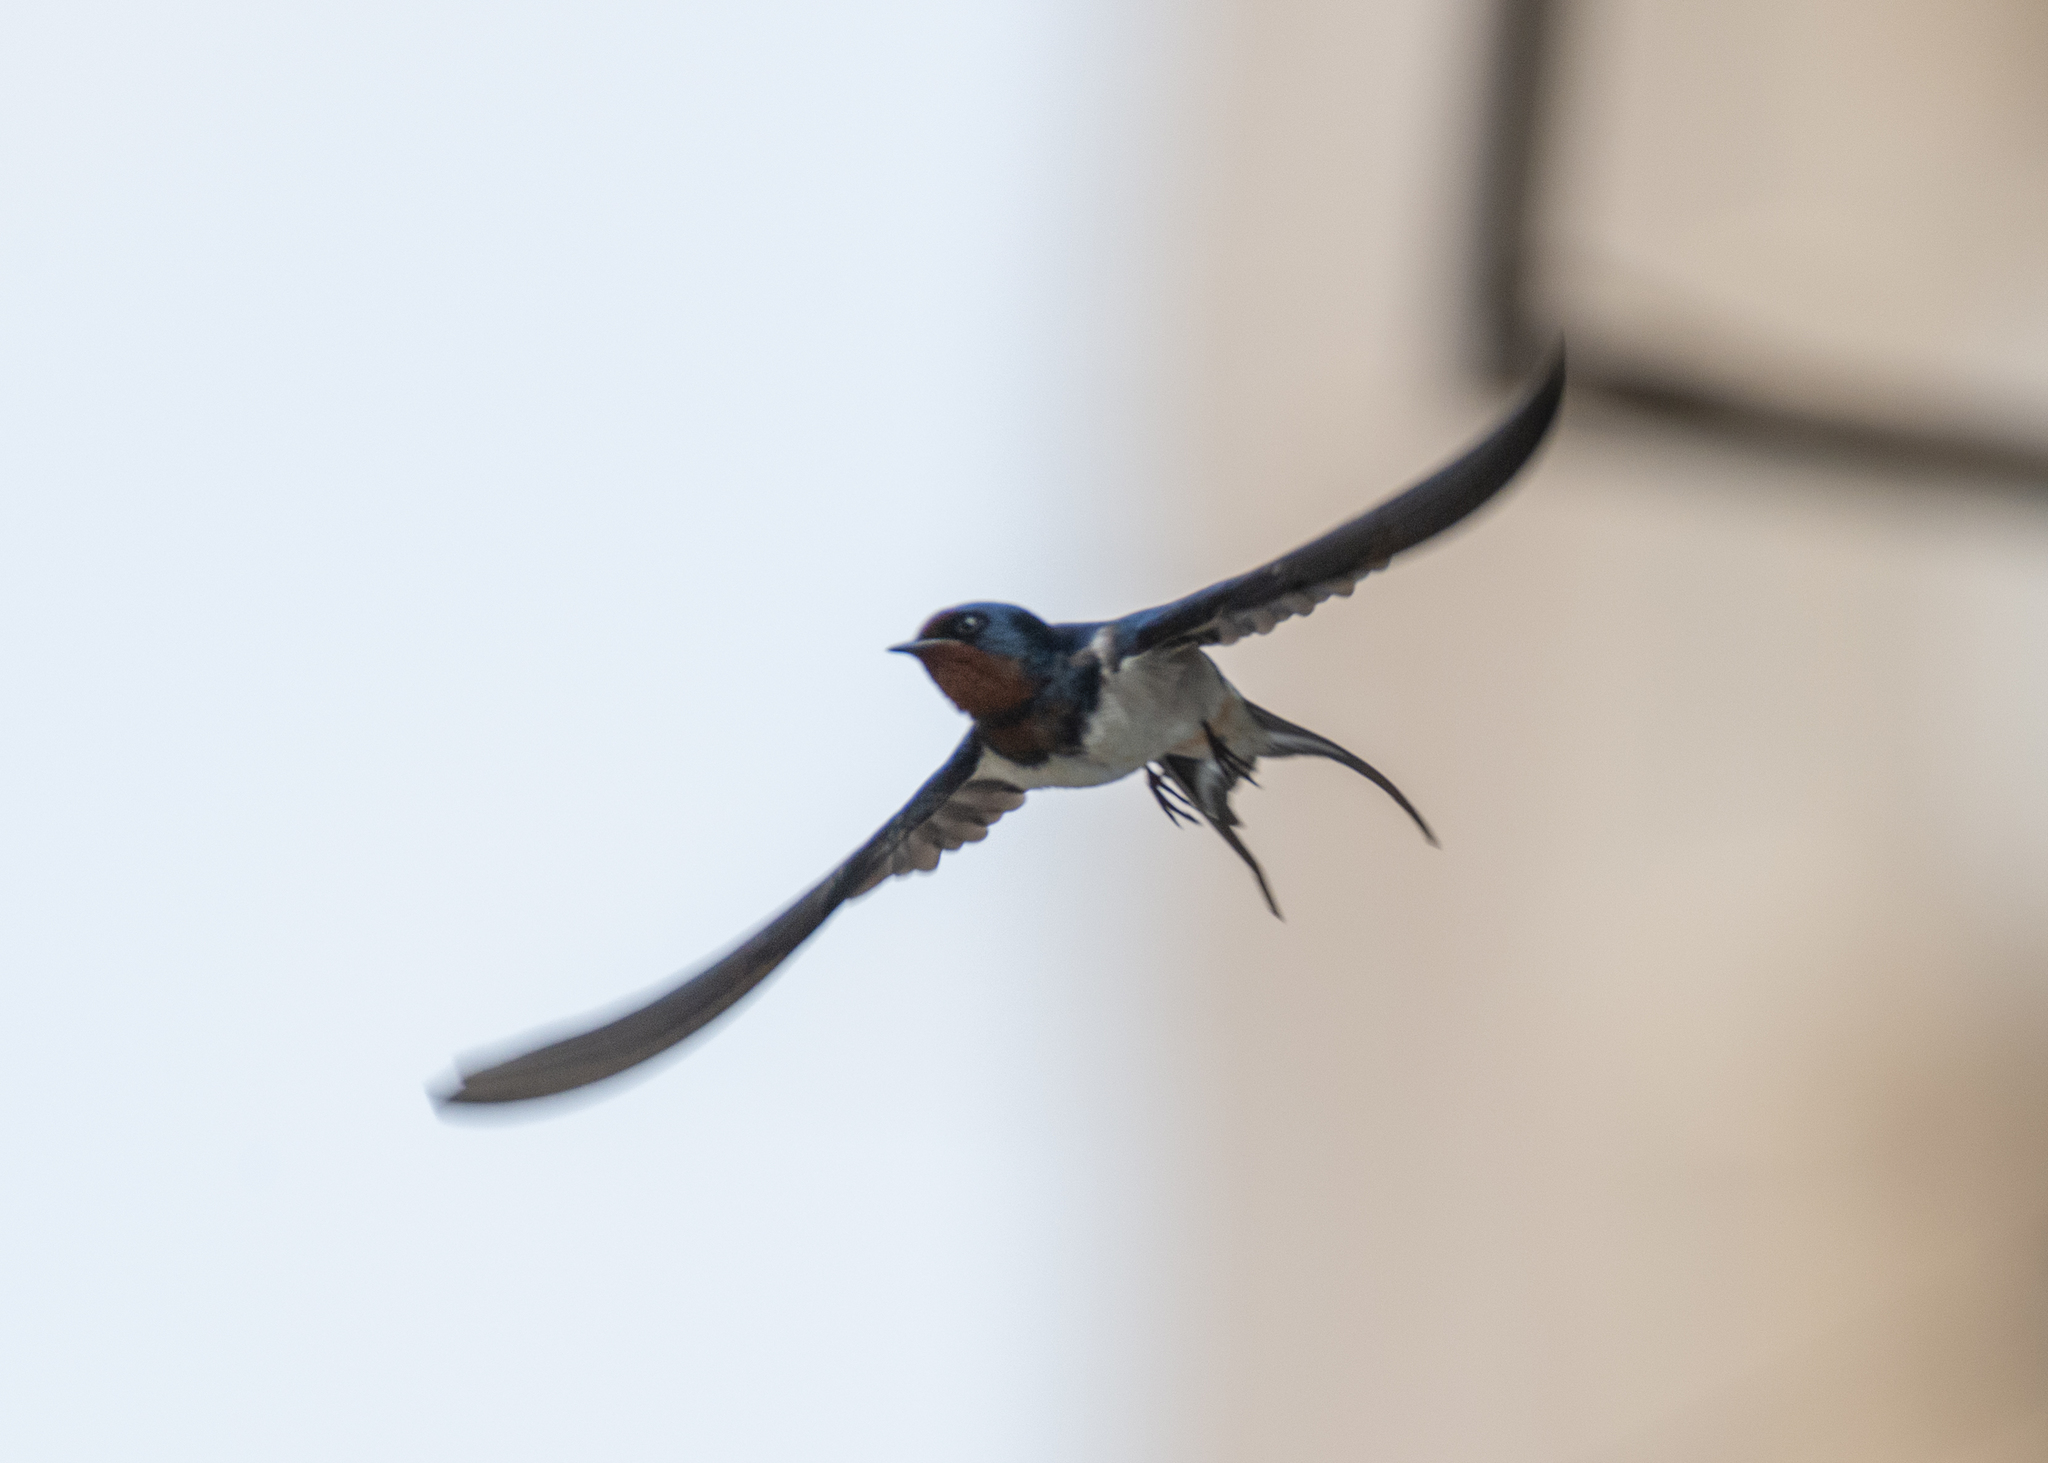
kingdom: Animalia
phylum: Chordata
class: Aves
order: Passeriformes
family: Hirundinidae
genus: Hirundo
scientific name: Hirundo rustica
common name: Barn swallow
